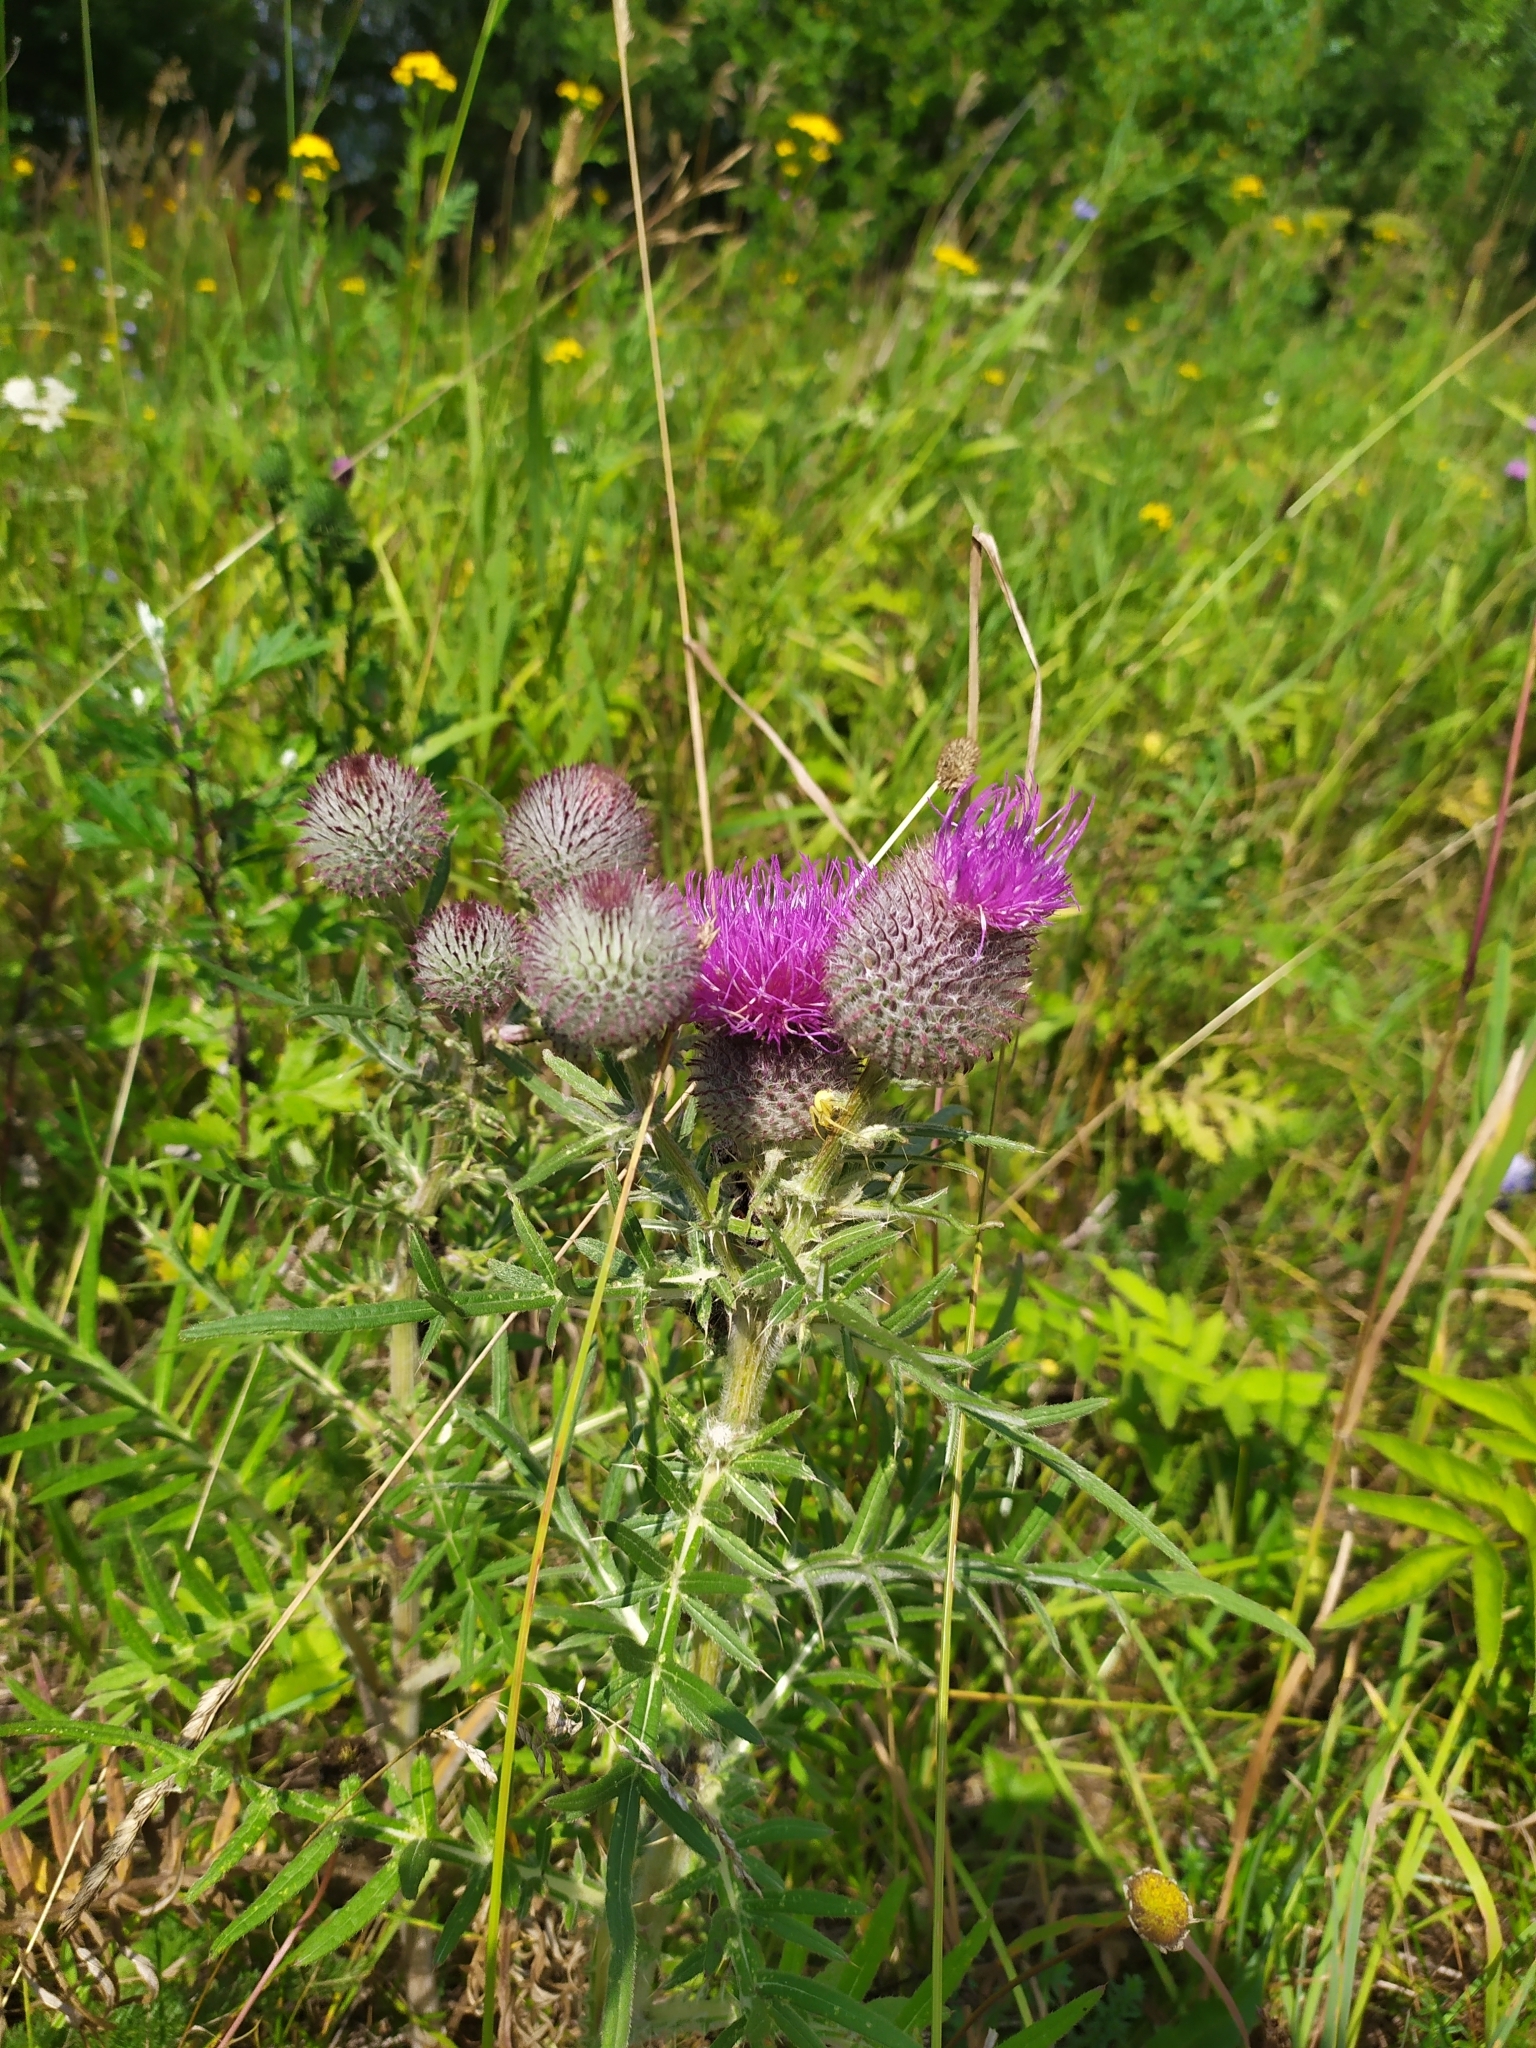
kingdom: Plantae
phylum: Tracheophyta
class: Magnoliopsida
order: Asterales
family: Asteraceae
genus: Lophiolepis
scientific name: Lophiolepis decussata
